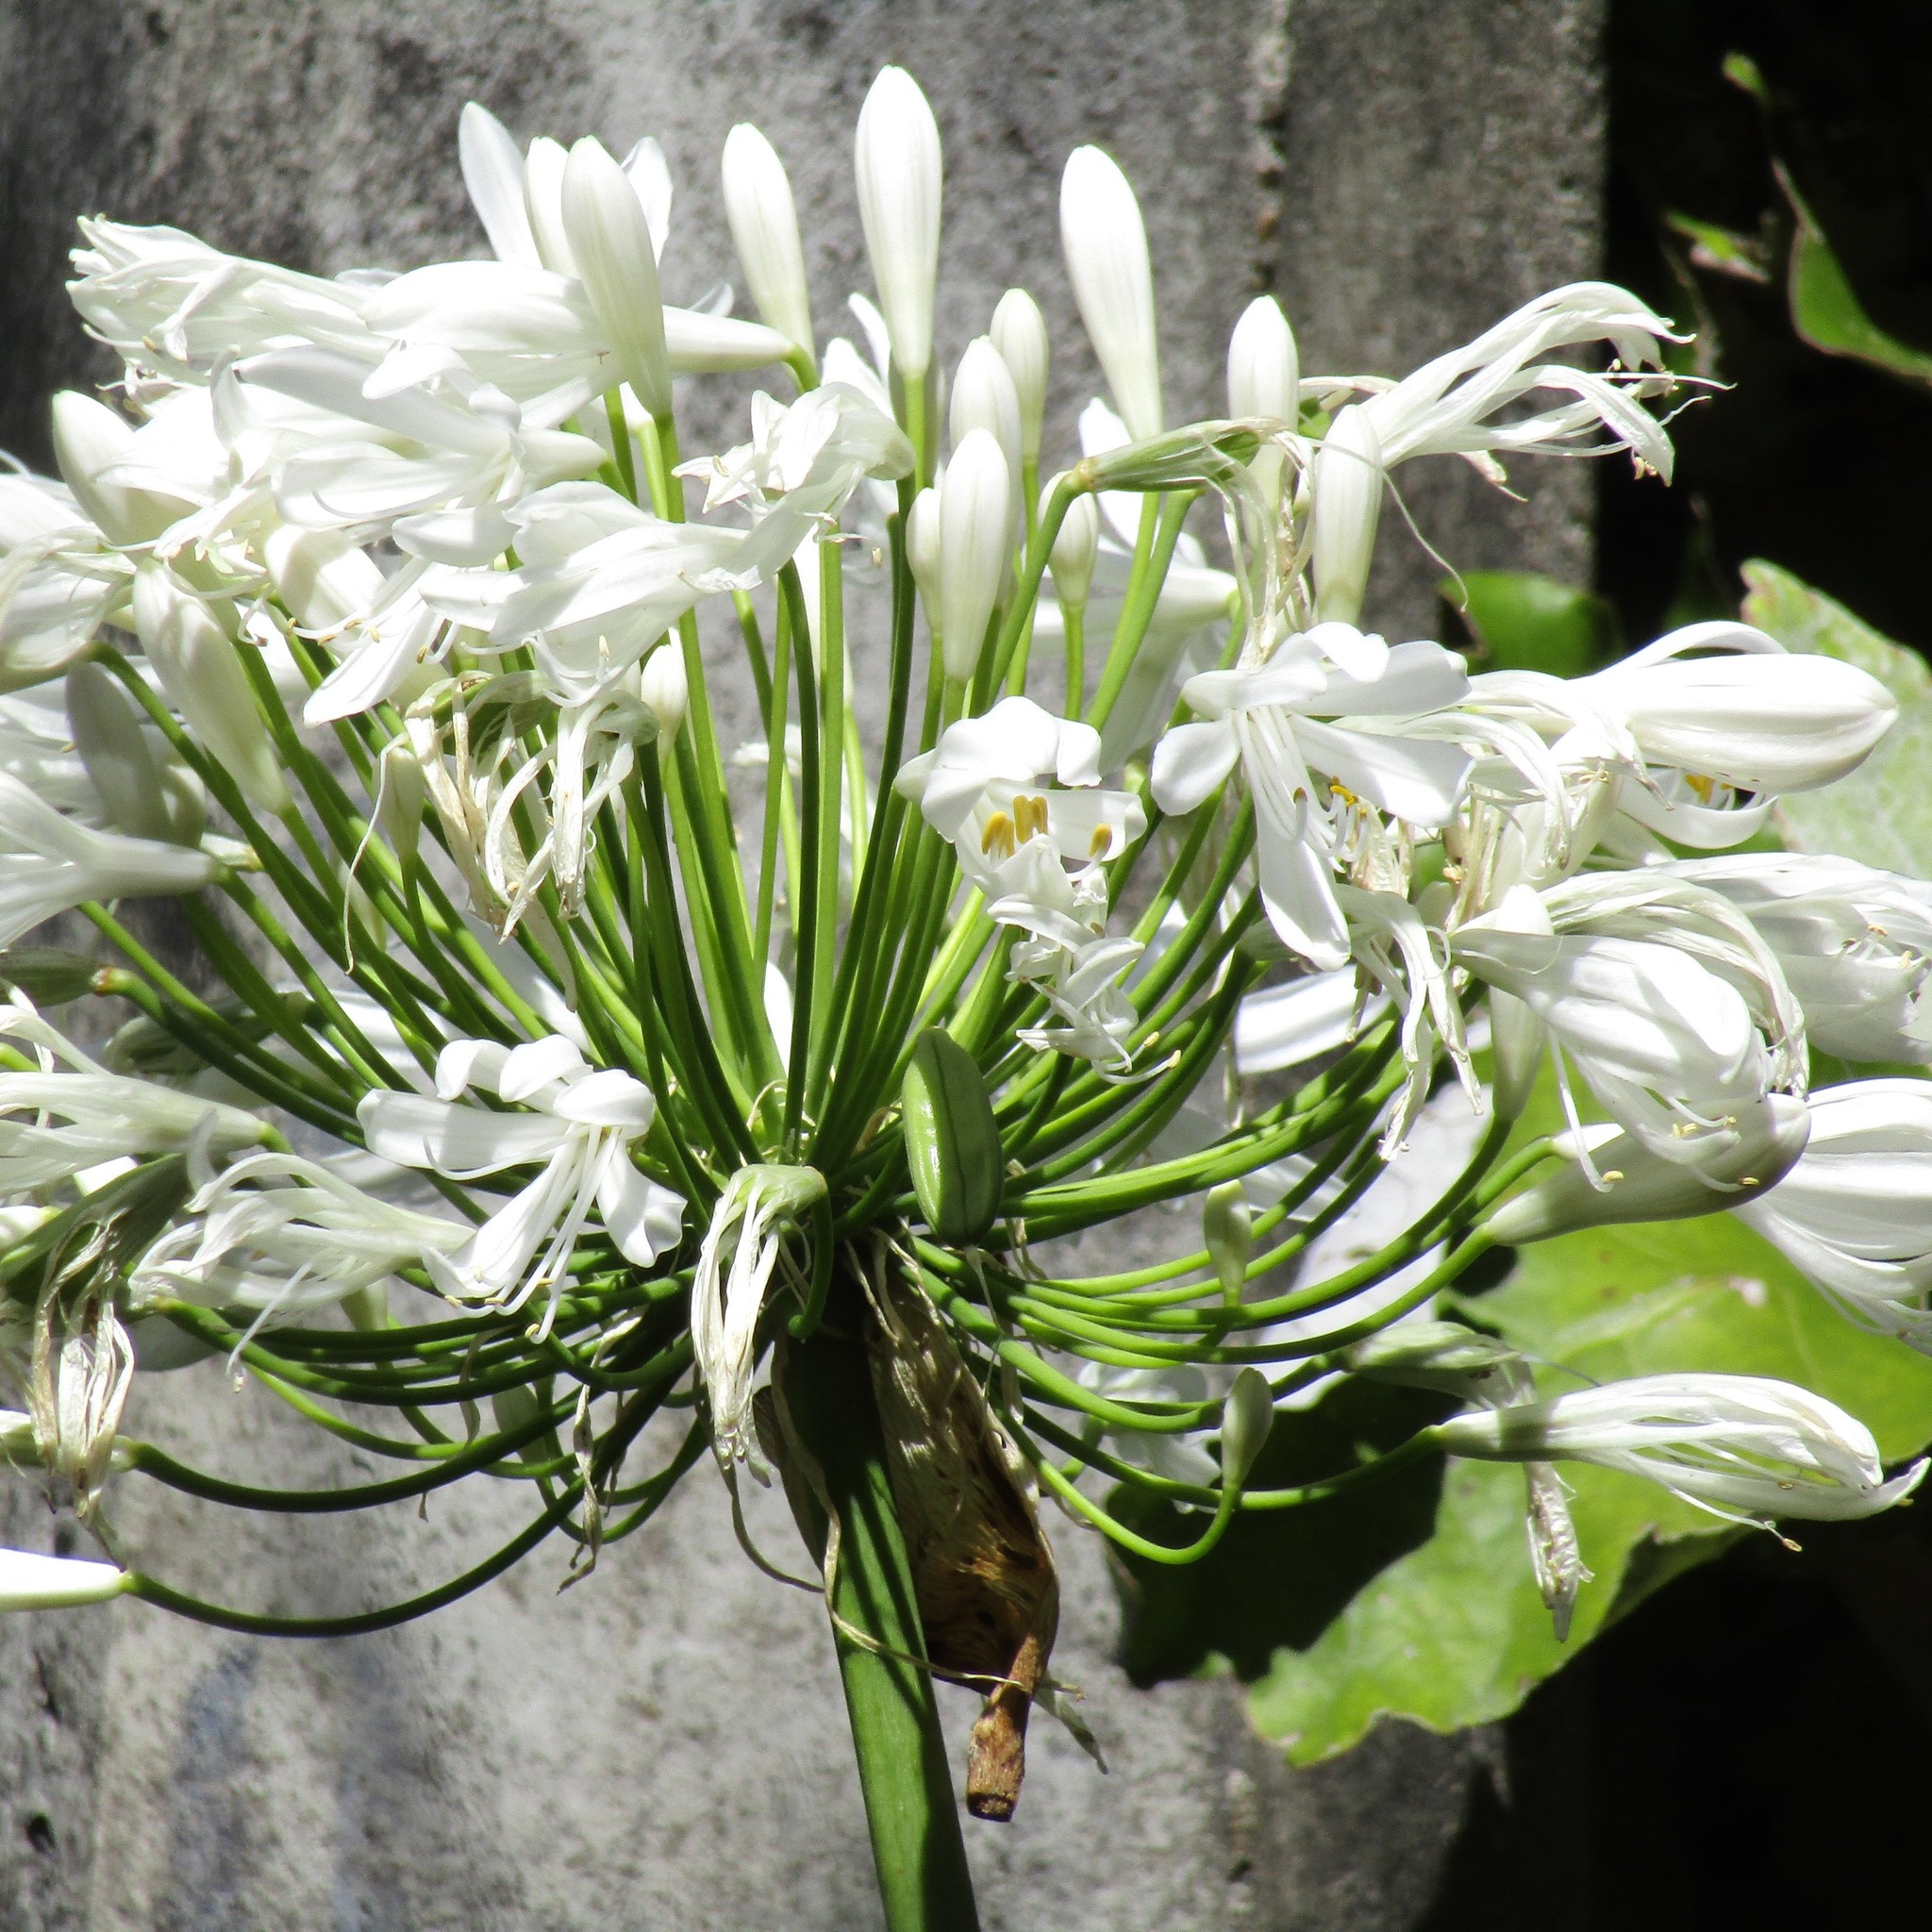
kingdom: Plantae
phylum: Tracheophyta
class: Liliopsida
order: Asparagales
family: Amaryllidaceae
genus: Agapanthus
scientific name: Agapanthus praecox
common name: African-lily
